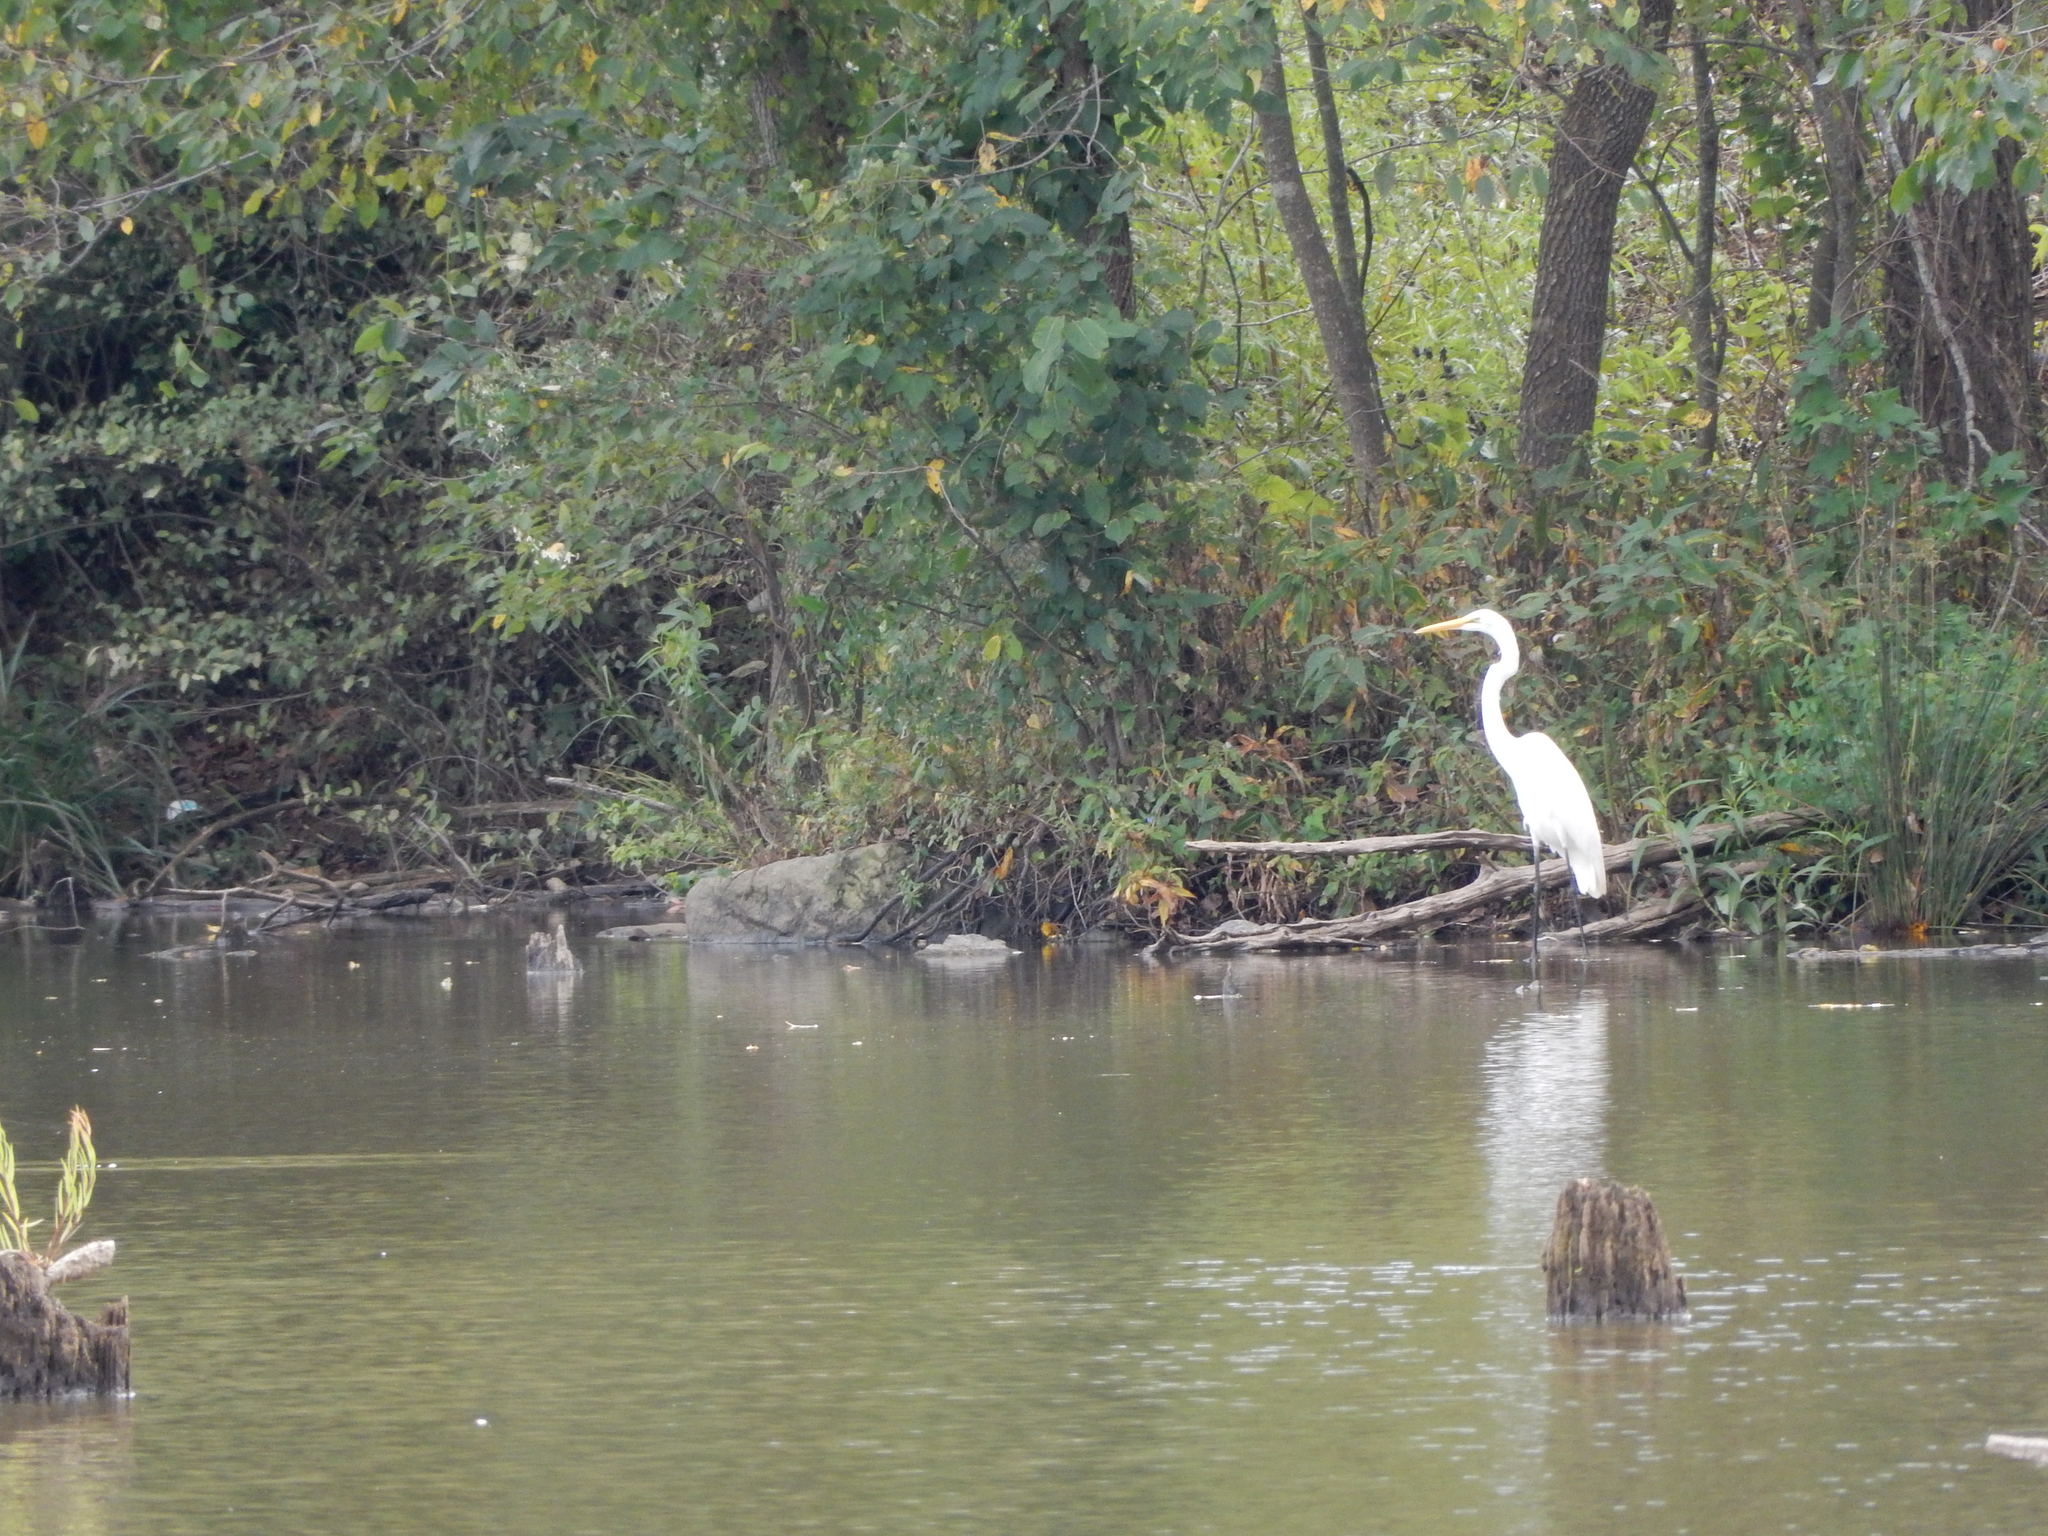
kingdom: Animalia
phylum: Chordata
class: Aves
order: Pelecaniformes
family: Ardeidae
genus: Ardea
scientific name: Ardea alba
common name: Great egret
